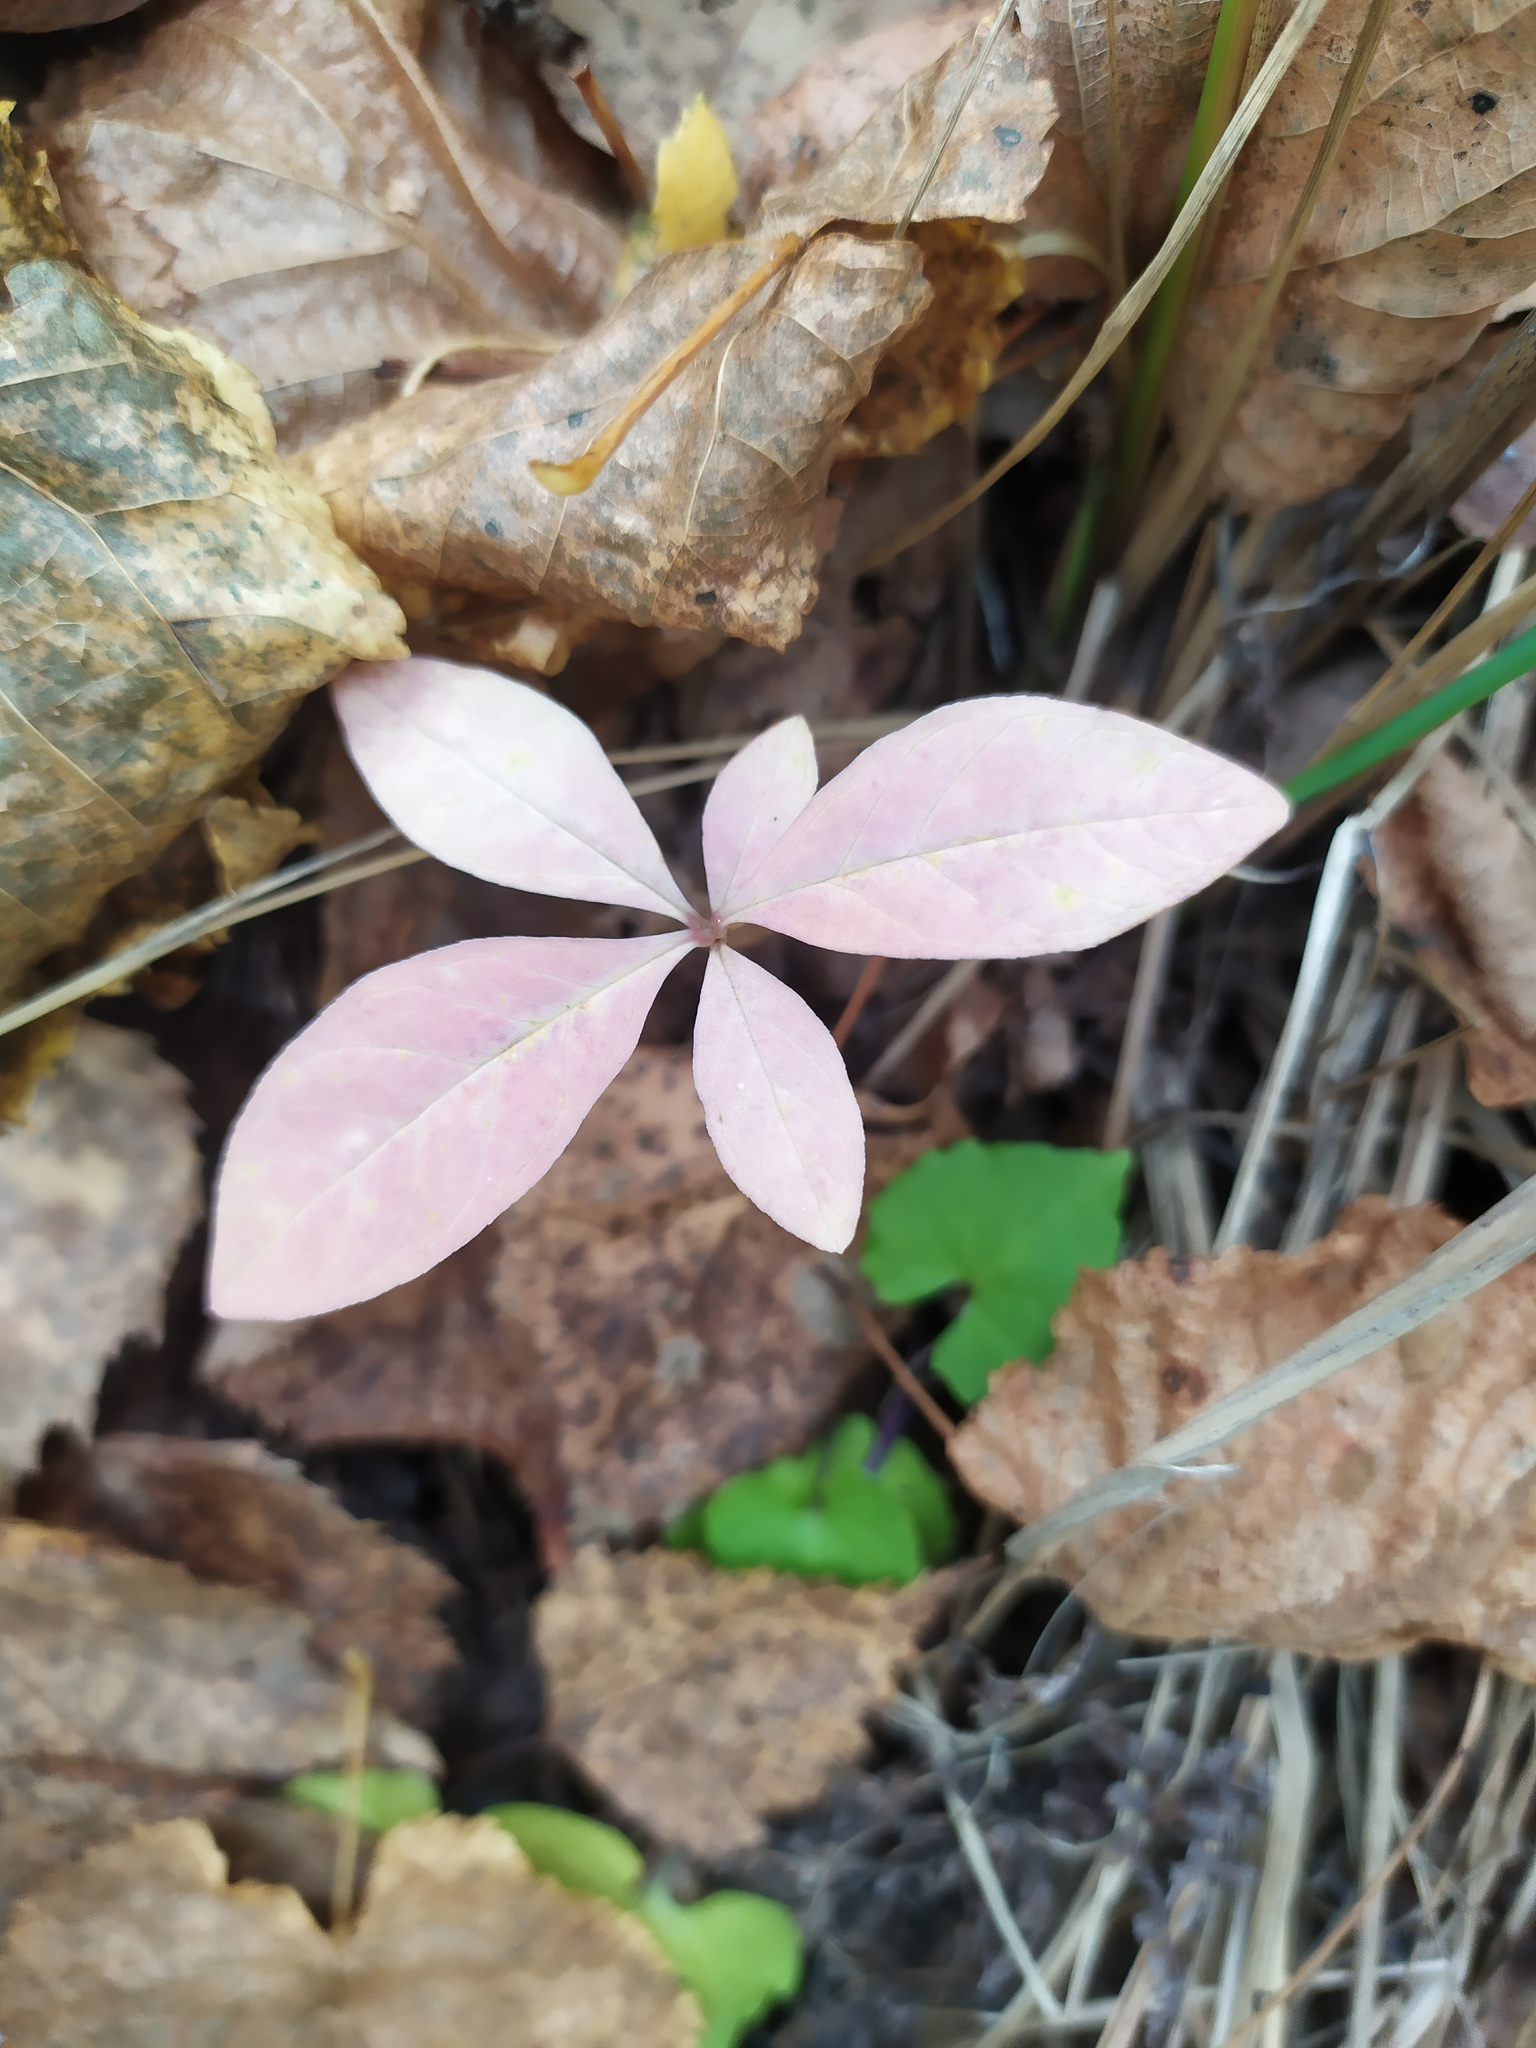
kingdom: Plantae
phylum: Tracheophyta
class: Magnoliopsida
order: Ericales
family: Primulaceae
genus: Lysimachia
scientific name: Lysimachia europaea
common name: Arctic starflower
